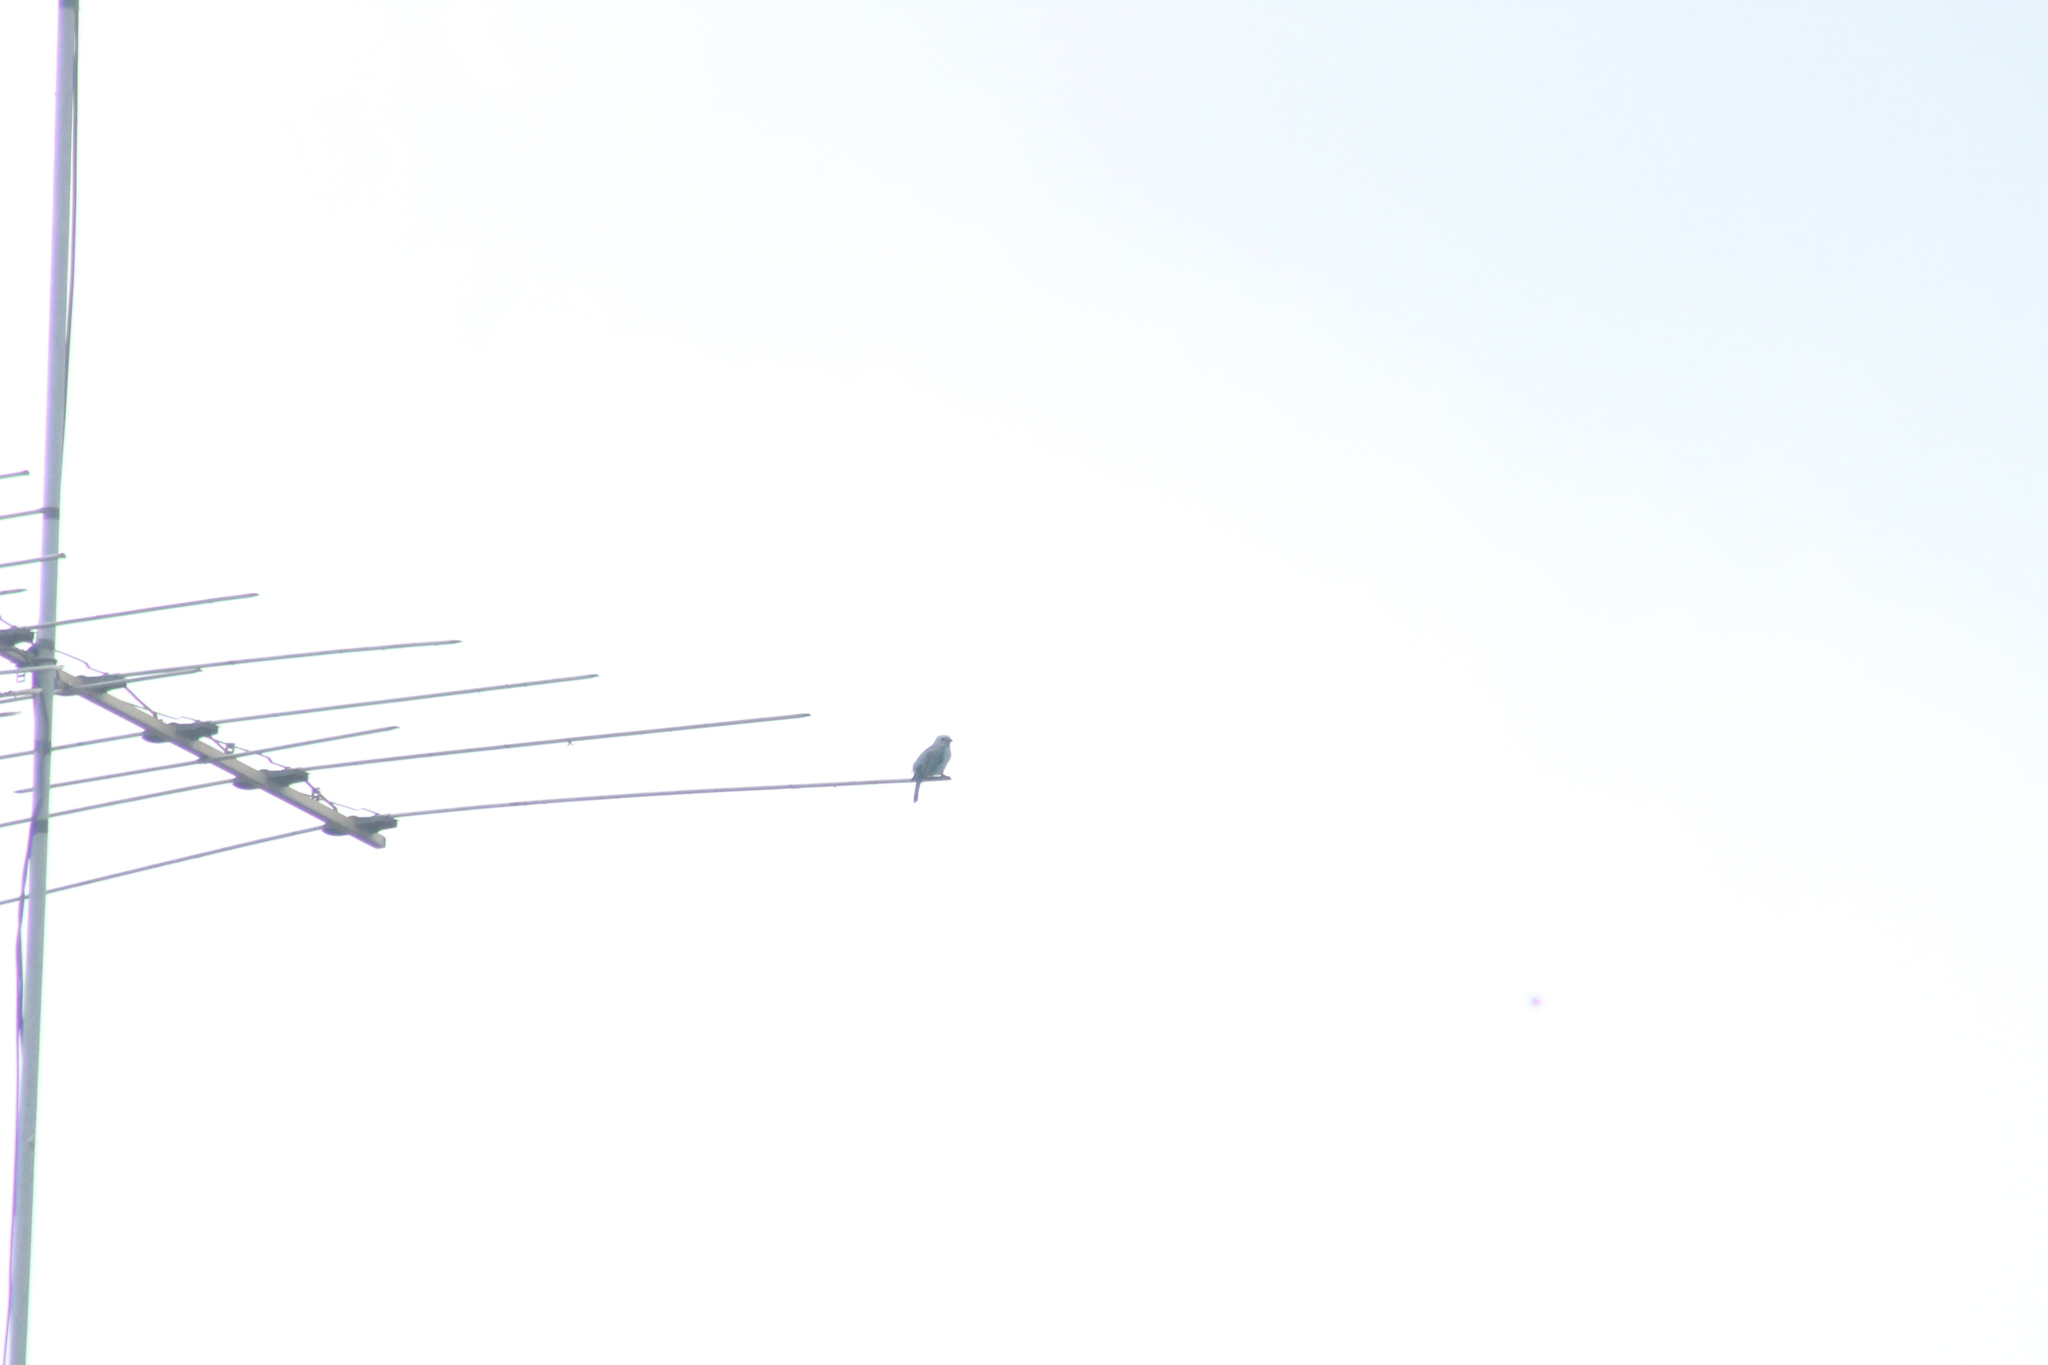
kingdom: Animalia
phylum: Chordata
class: Aves
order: Passeriformes
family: Thraupidae
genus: Thraupis
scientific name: Thraupis episcopus
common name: Blue-grey tanager
